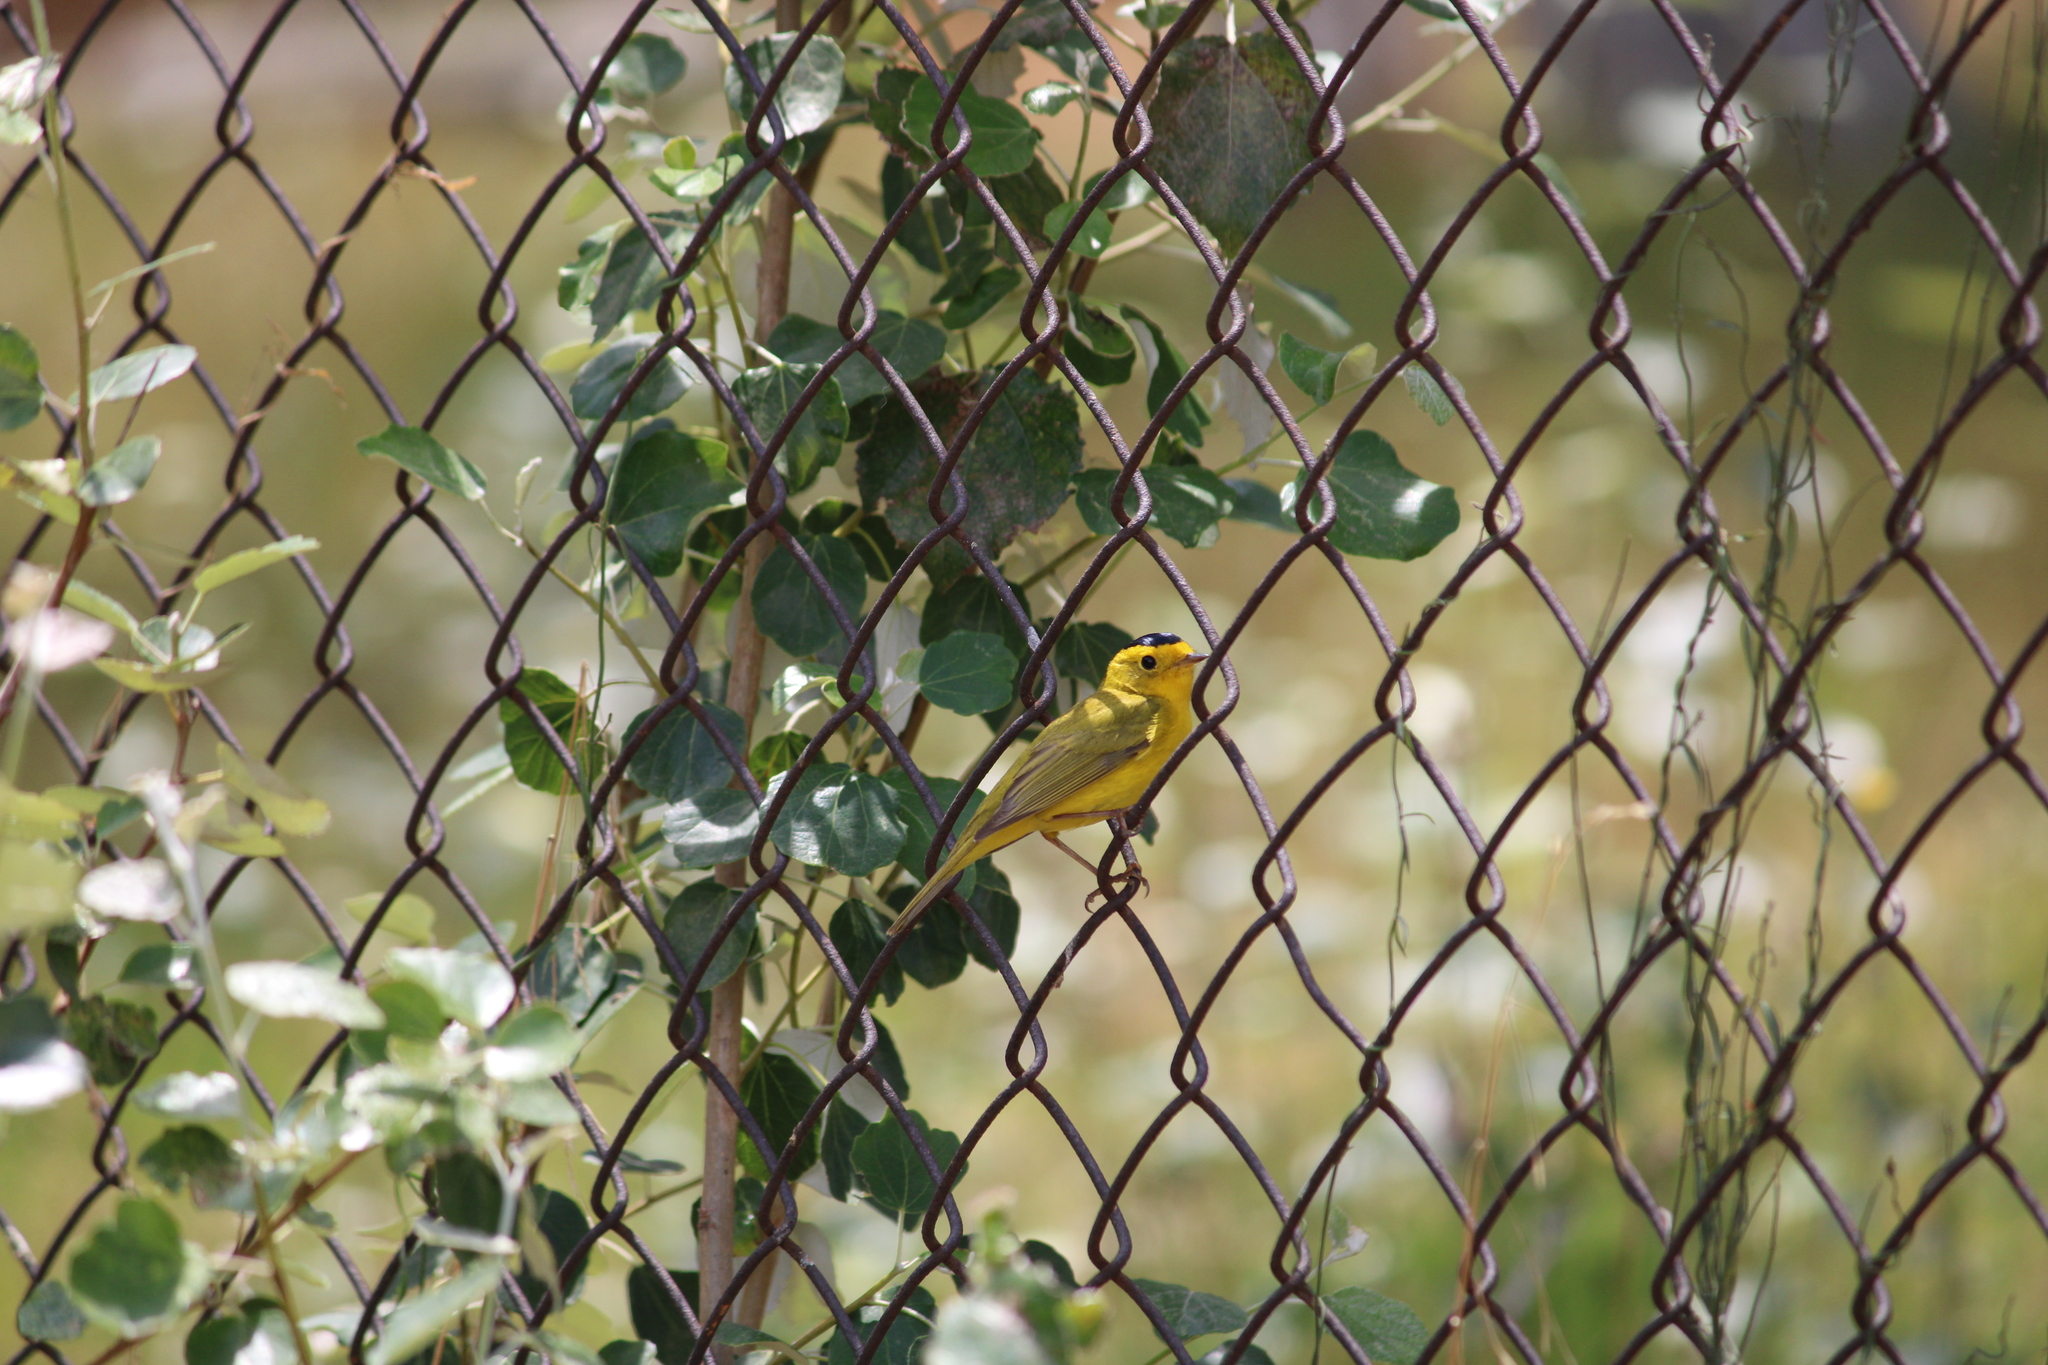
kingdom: Animalia
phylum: Chordata
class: Aves
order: Passeriformes
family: Parulidae
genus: Cardellina
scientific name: Cardellina pusilla
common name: Wilson's warbler
